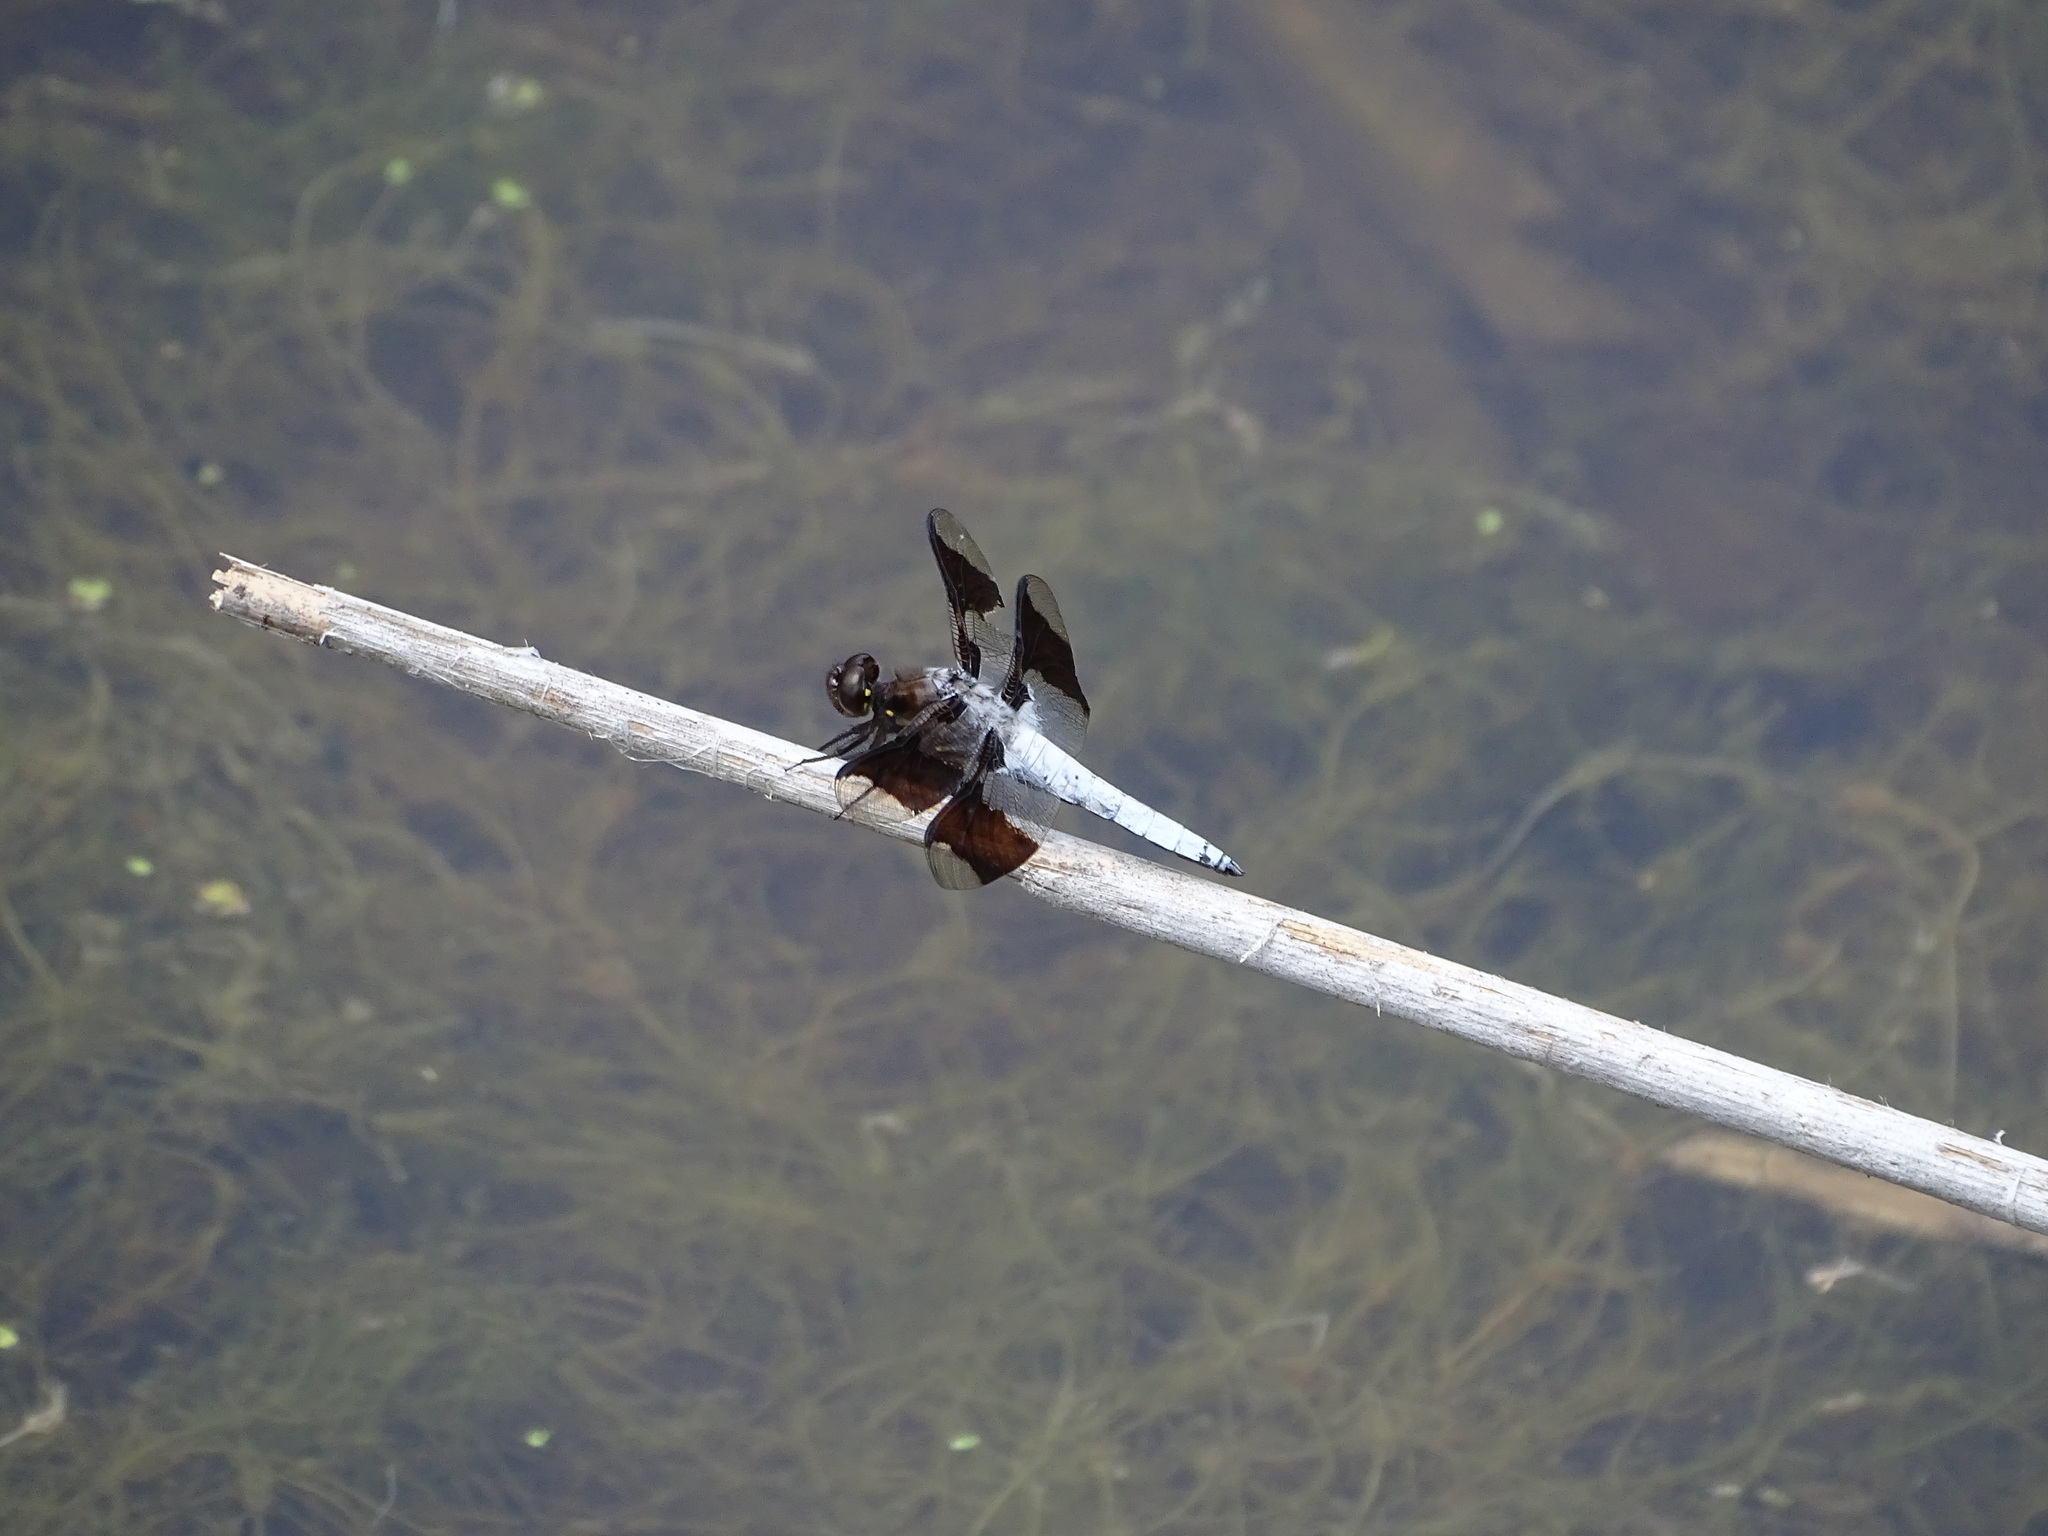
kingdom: Animalia
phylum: Arthropoda
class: Insecta
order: Odonata
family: Libellulidae
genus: Plathemis
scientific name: Plathemis lydia
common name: Common whitetail
